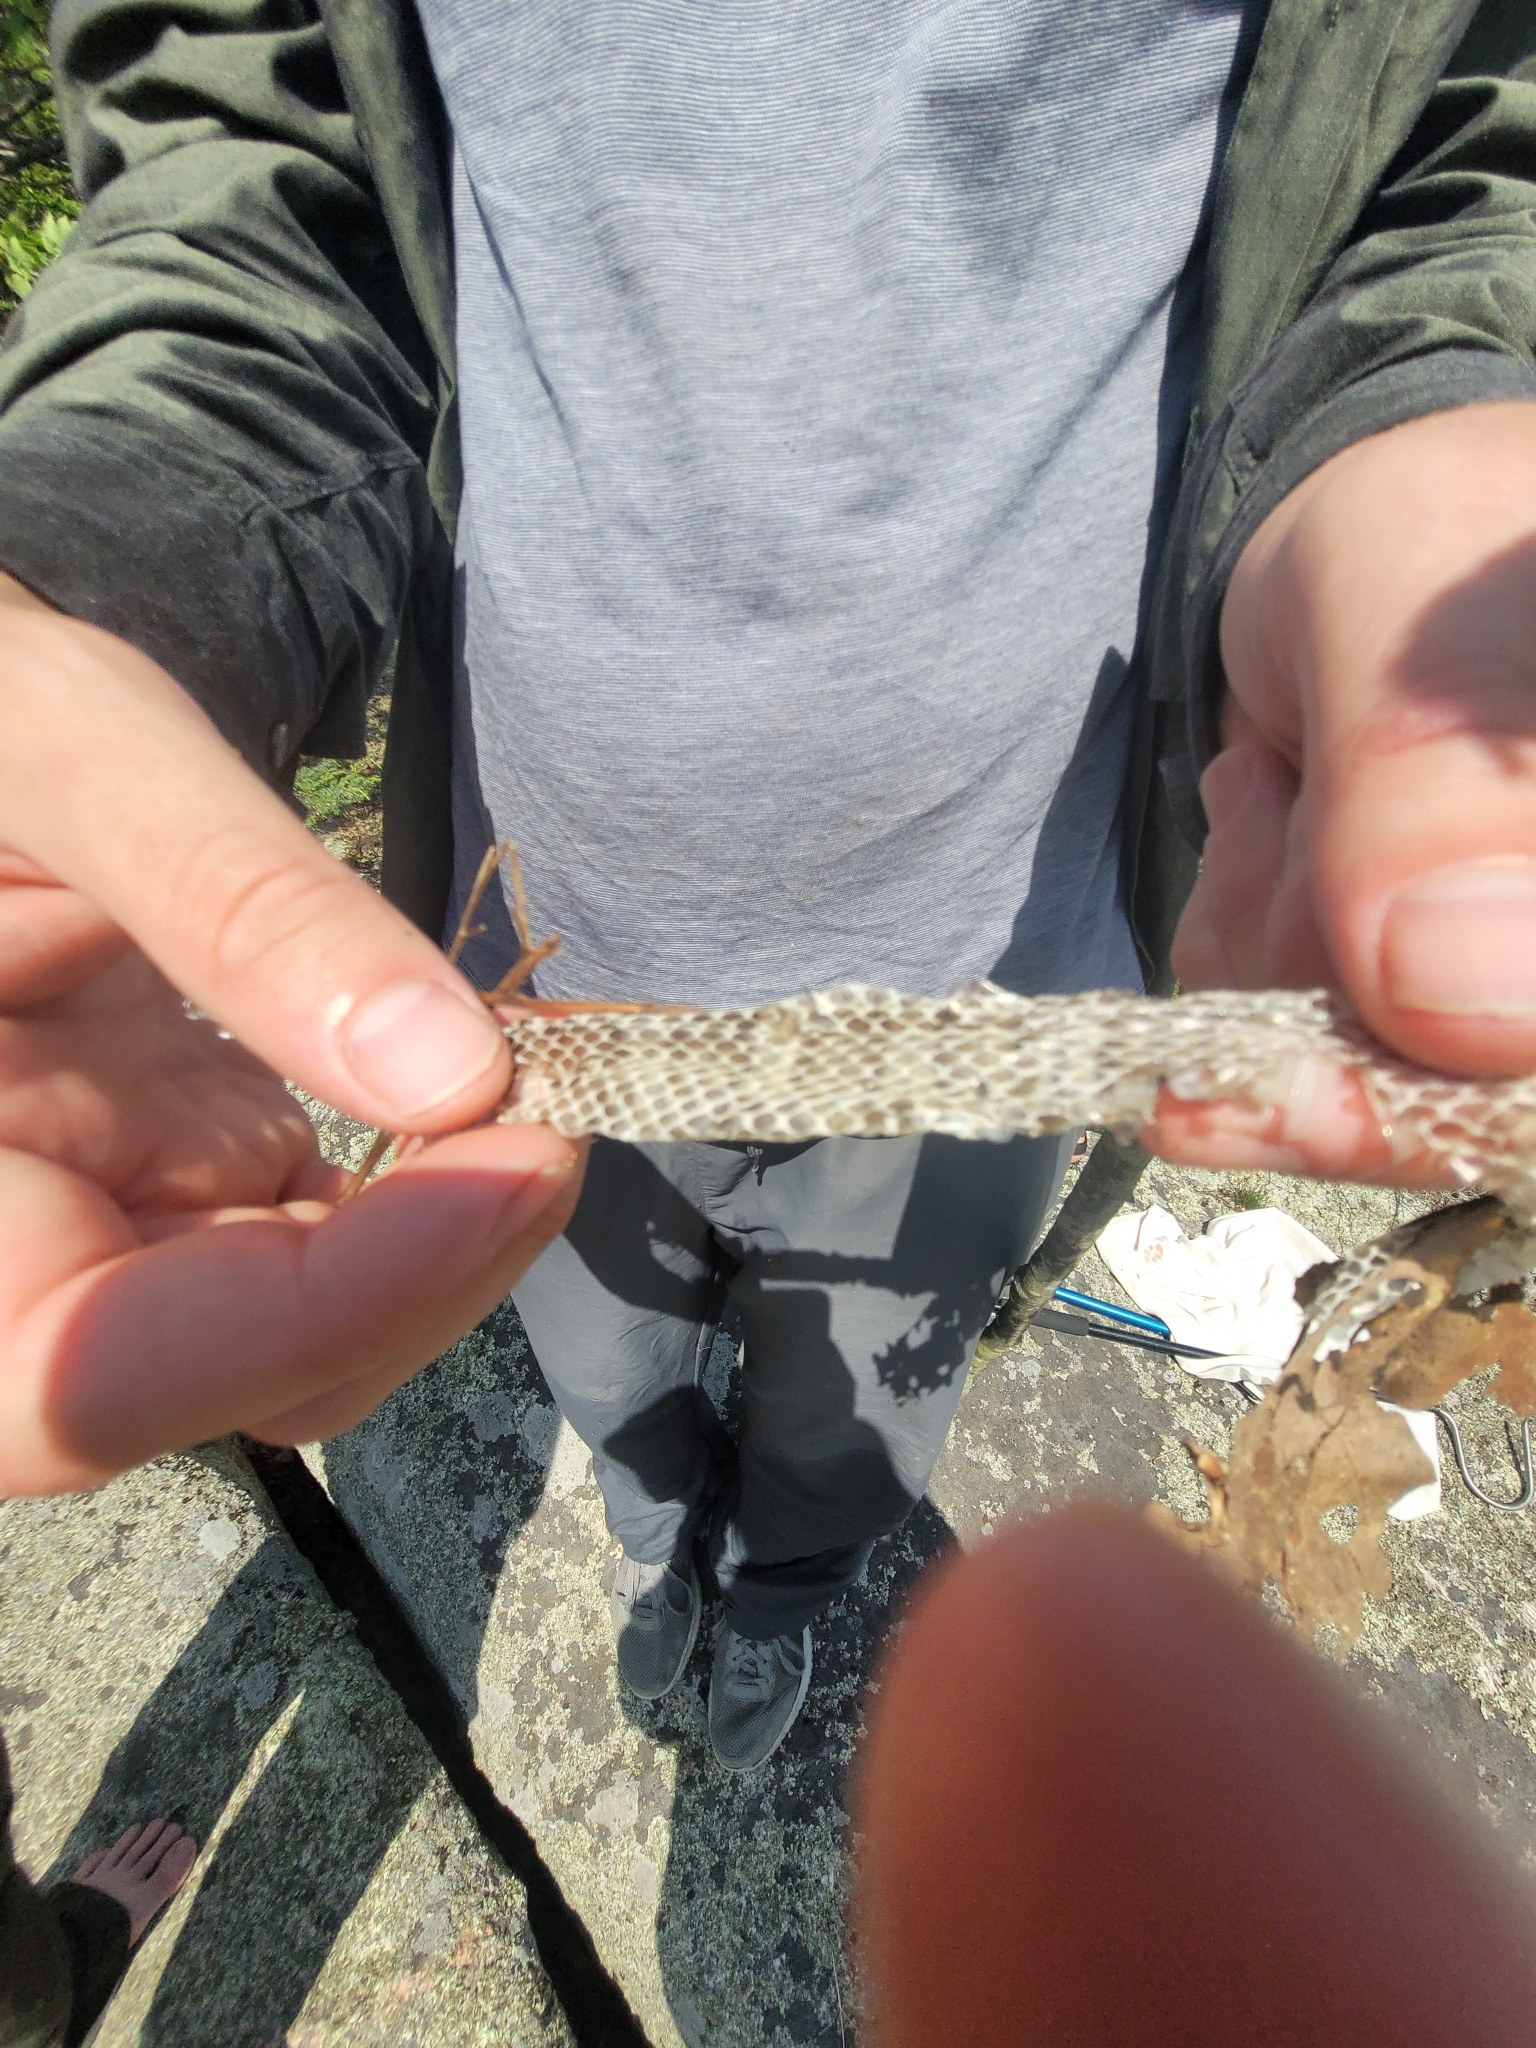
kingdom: Animalia
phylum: Chordata
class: Squamata
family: Colubridae
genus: Lampropeltis
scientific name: Lampropeltis triangulum
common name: Eastern milksnake
